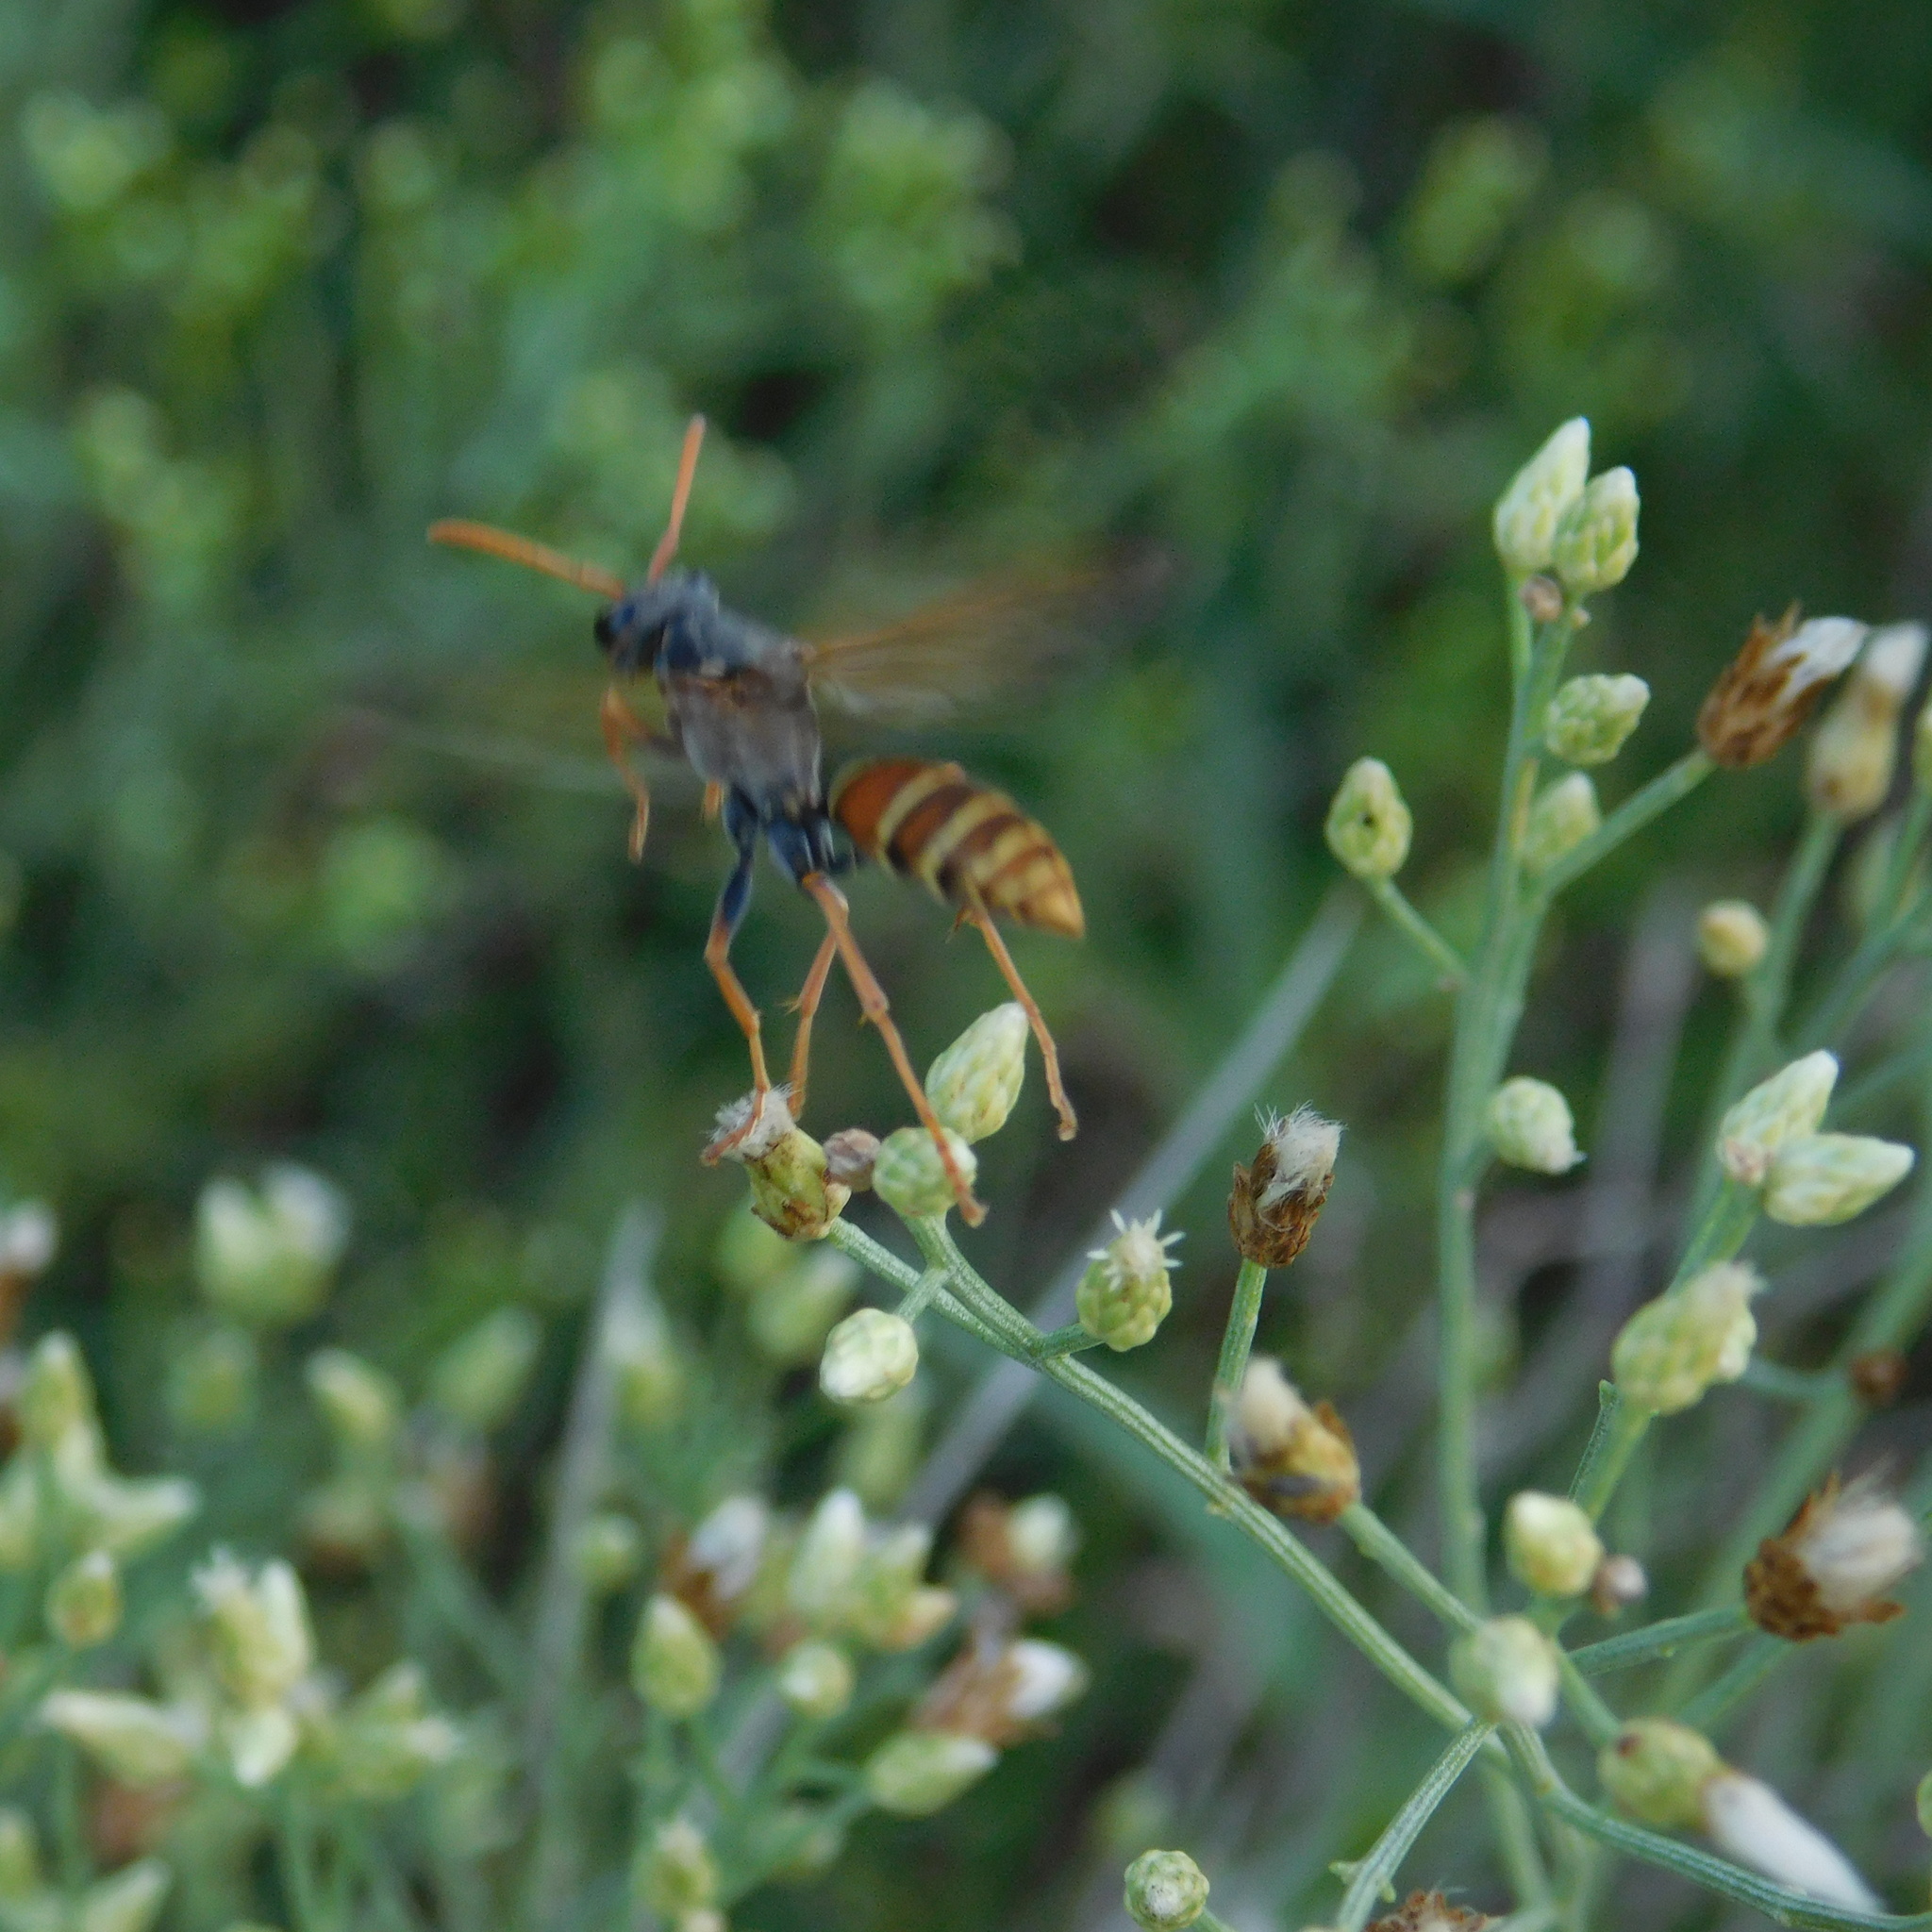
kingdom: Animalia
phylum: Arthropoda
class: Insecta
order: Hymenoptera
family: Eumenidae
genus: Polistes
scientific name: Polistes billardieri
